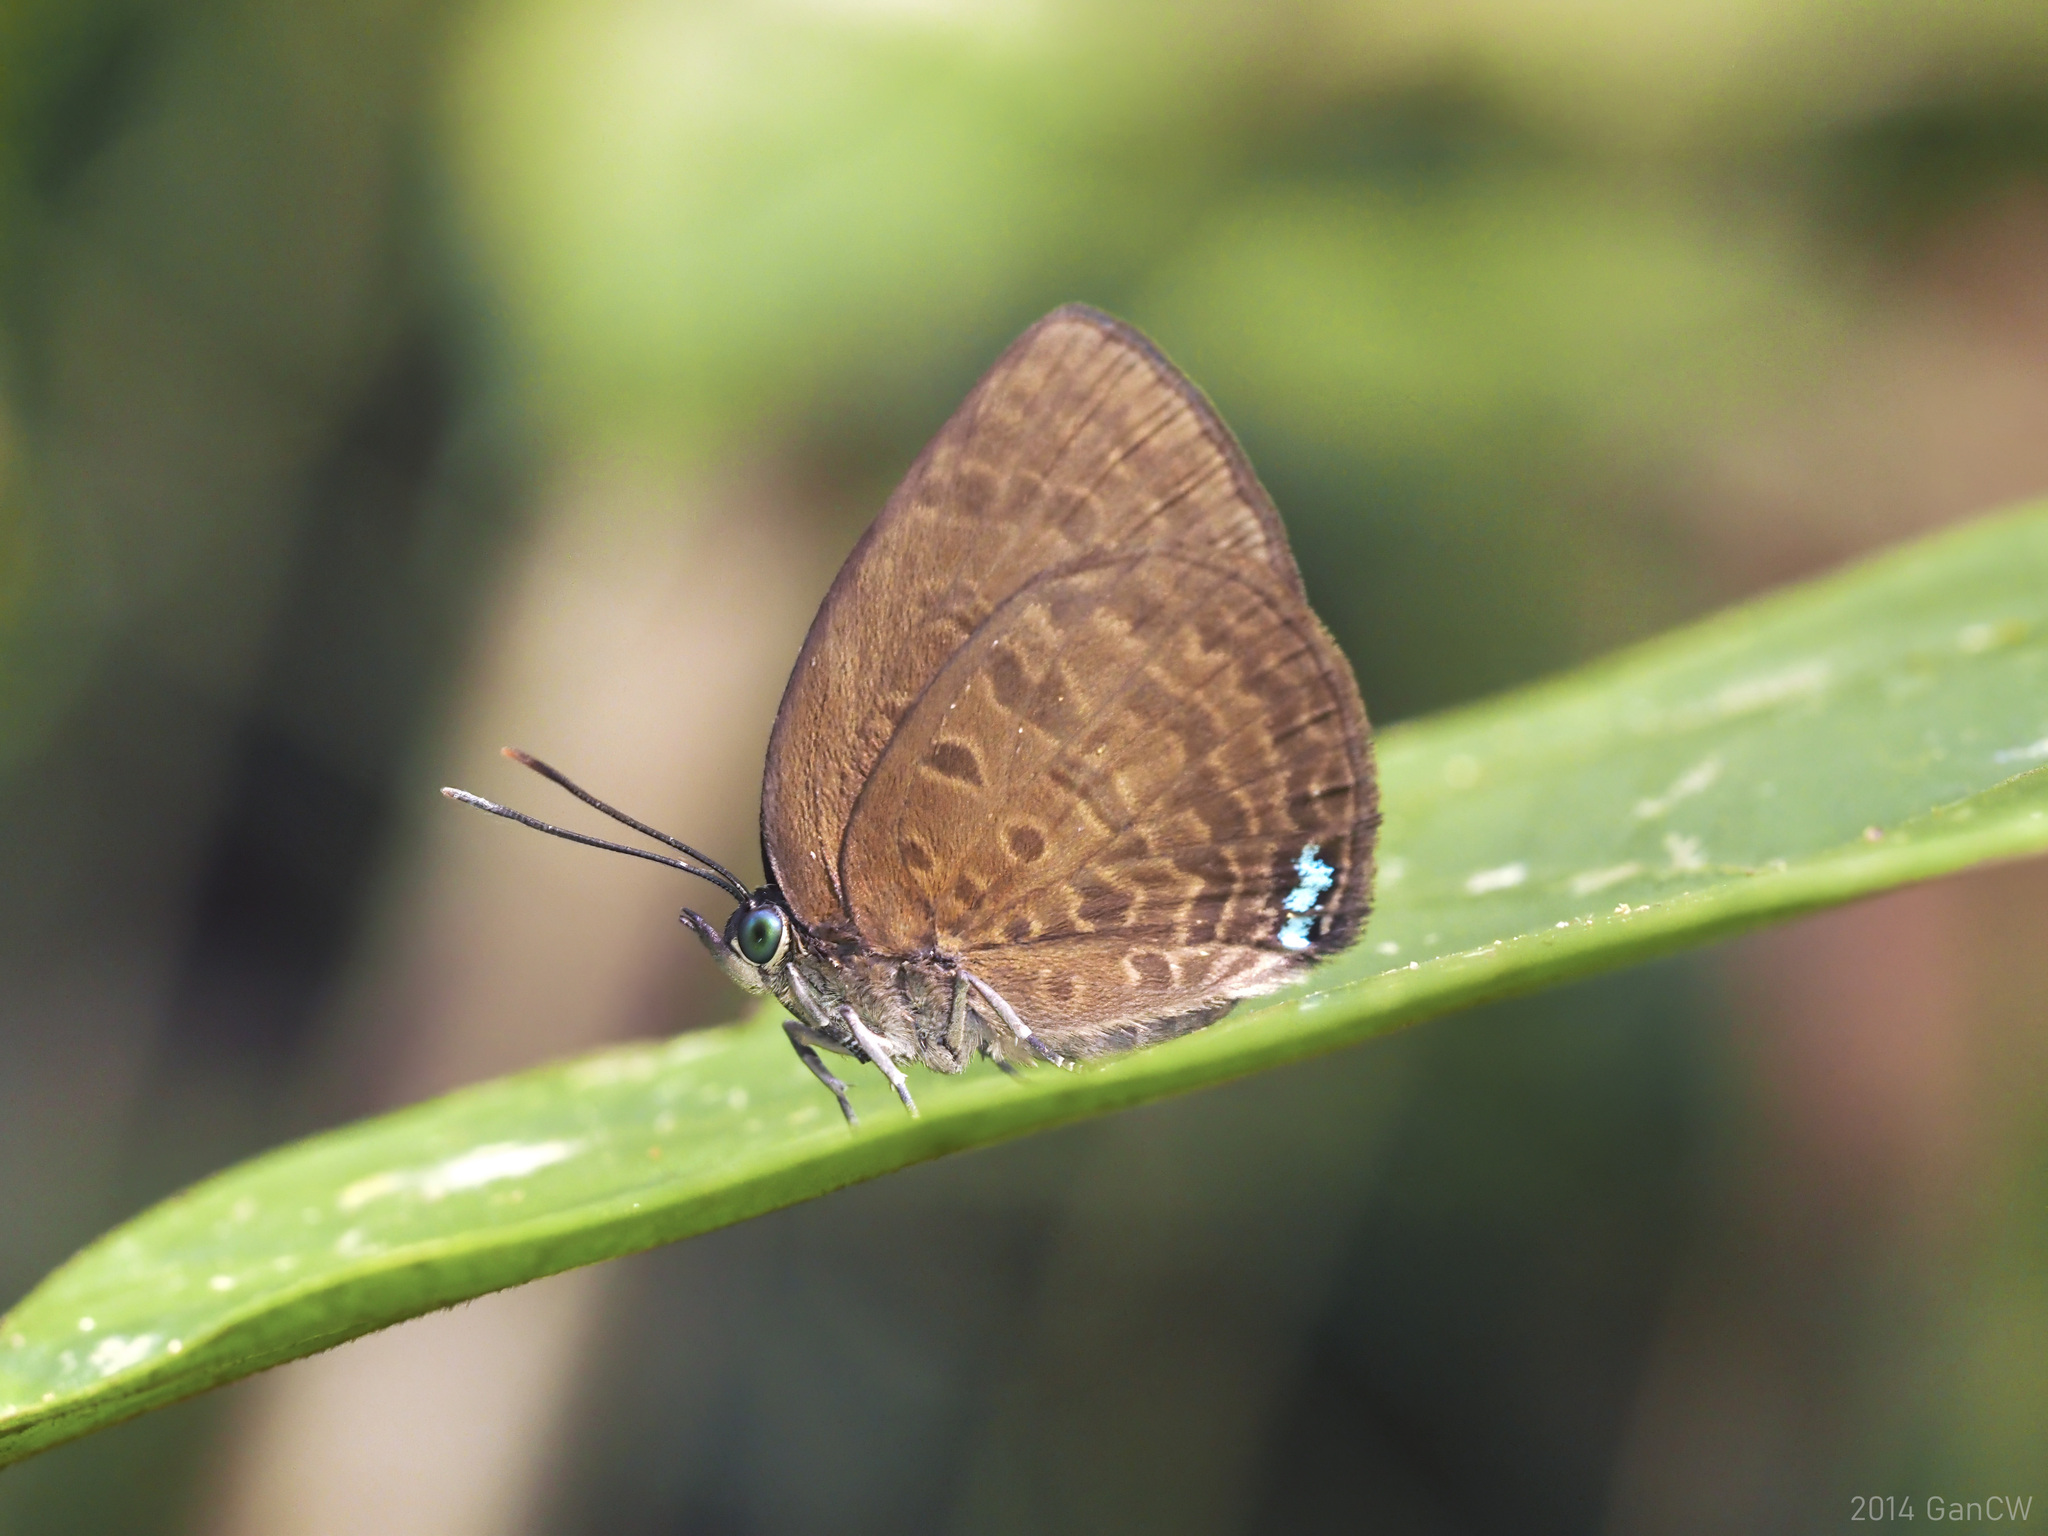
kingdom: Animalia
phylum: Arthropoda
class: Insecta
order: Lepidoptera
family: Lycaenidae
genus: Arhopala
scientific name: Arhopala antimuta
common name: Small tailless oakblue
